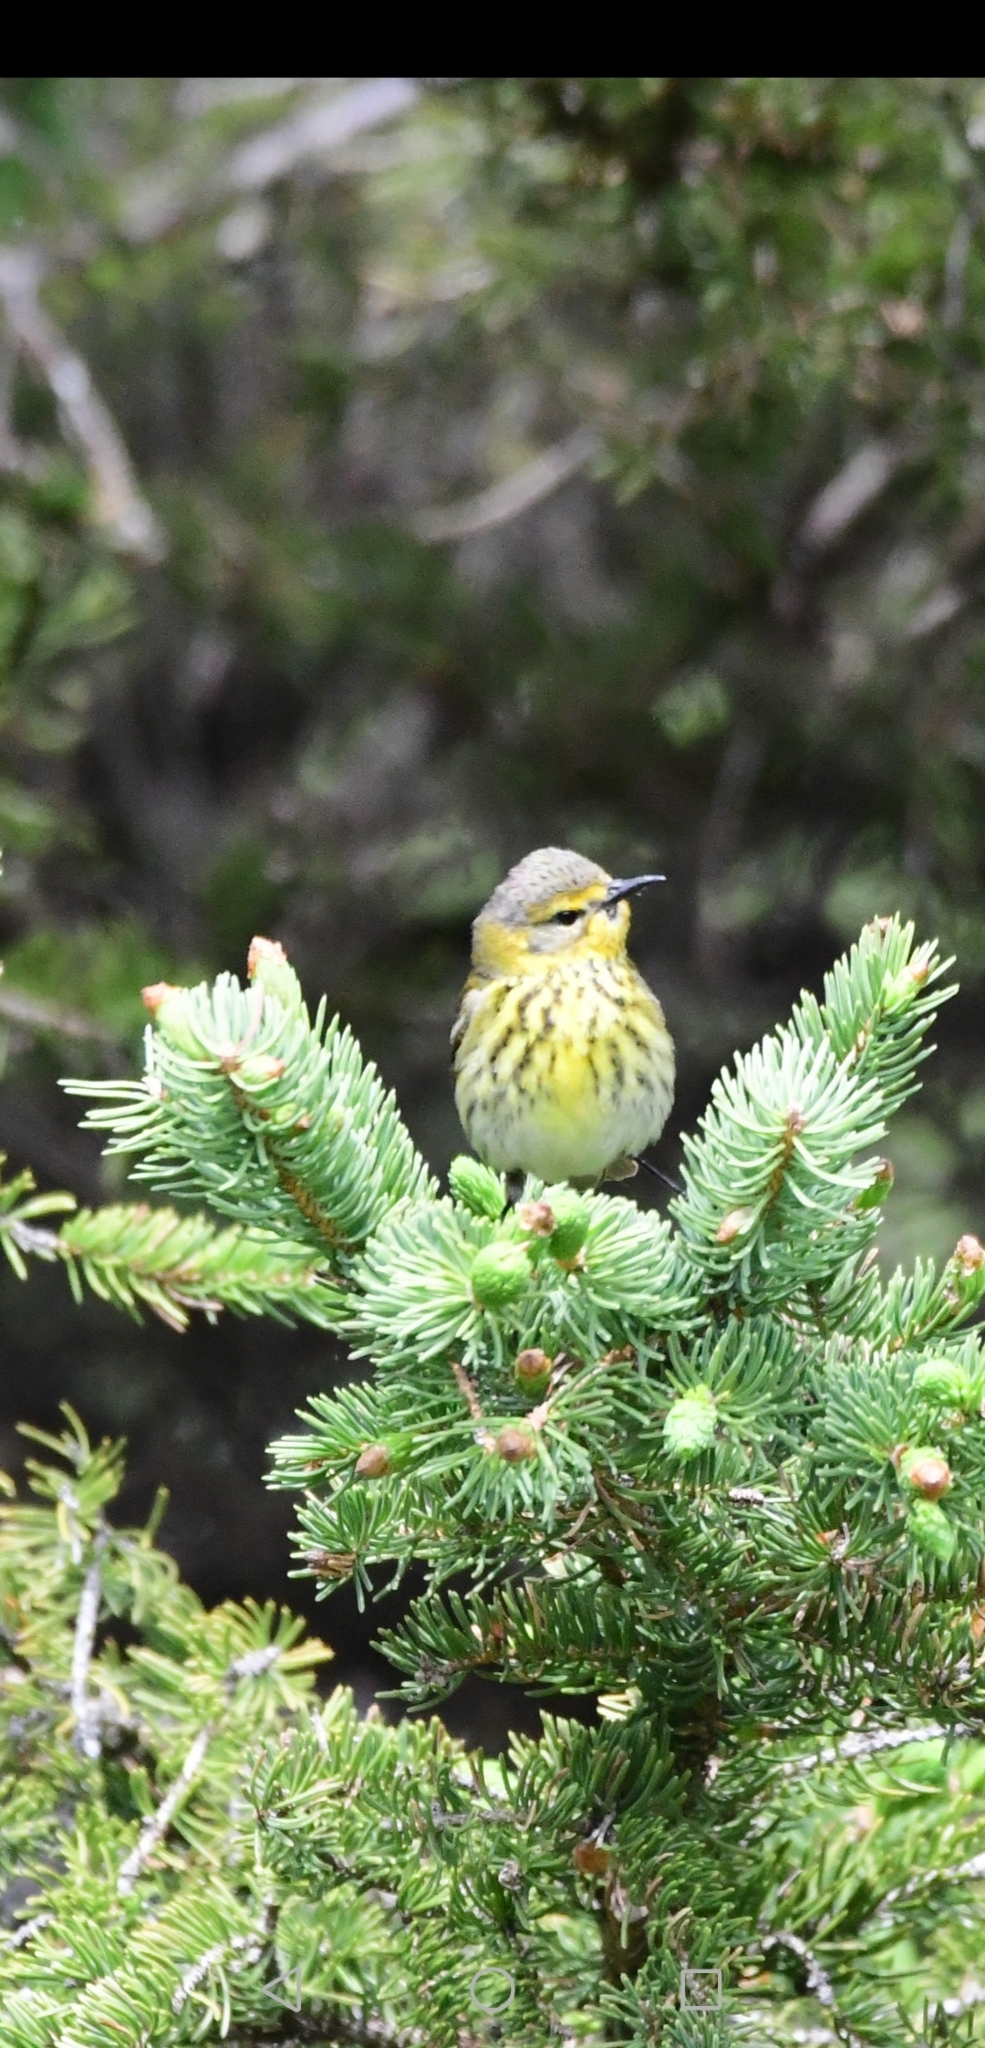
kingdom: Animalia
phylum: Chordata
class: Aves
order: Passeriformes
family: Parulidae
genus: Setophaga
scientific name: Setophaga tigrina
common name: Cape may warbler
